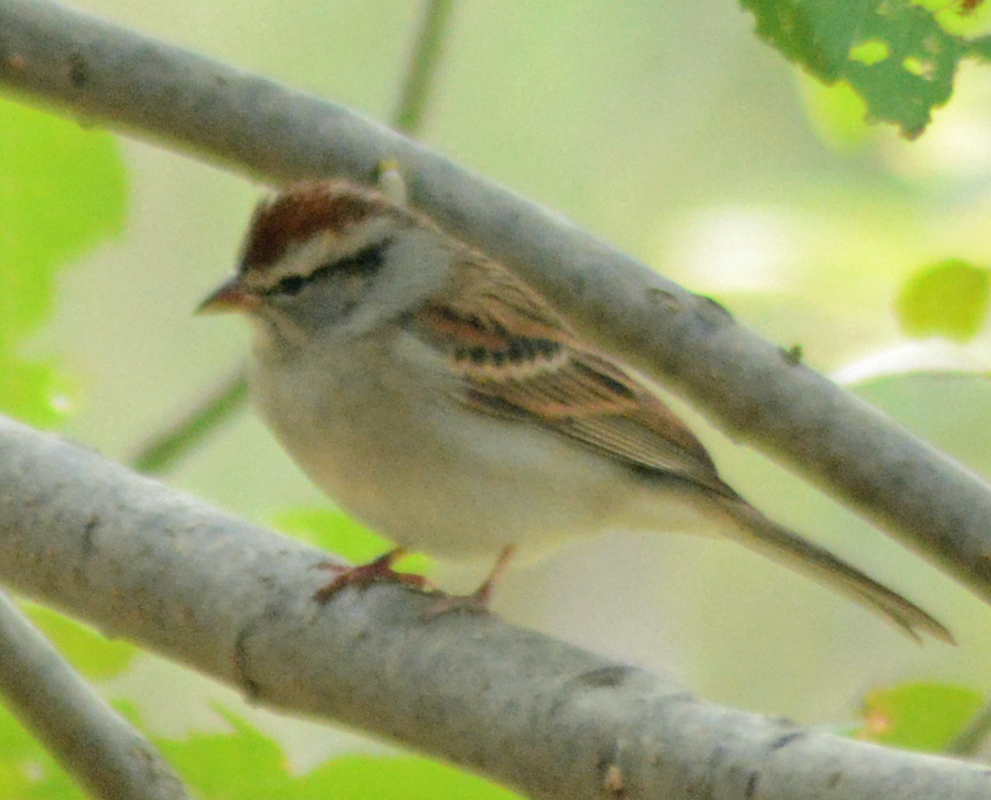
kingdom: Animalia
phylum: Chordata
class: Aves
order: Passeriformes
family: Passerellidae
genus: Spizella
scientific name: Spizella passerina
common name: Chipping sparrow
